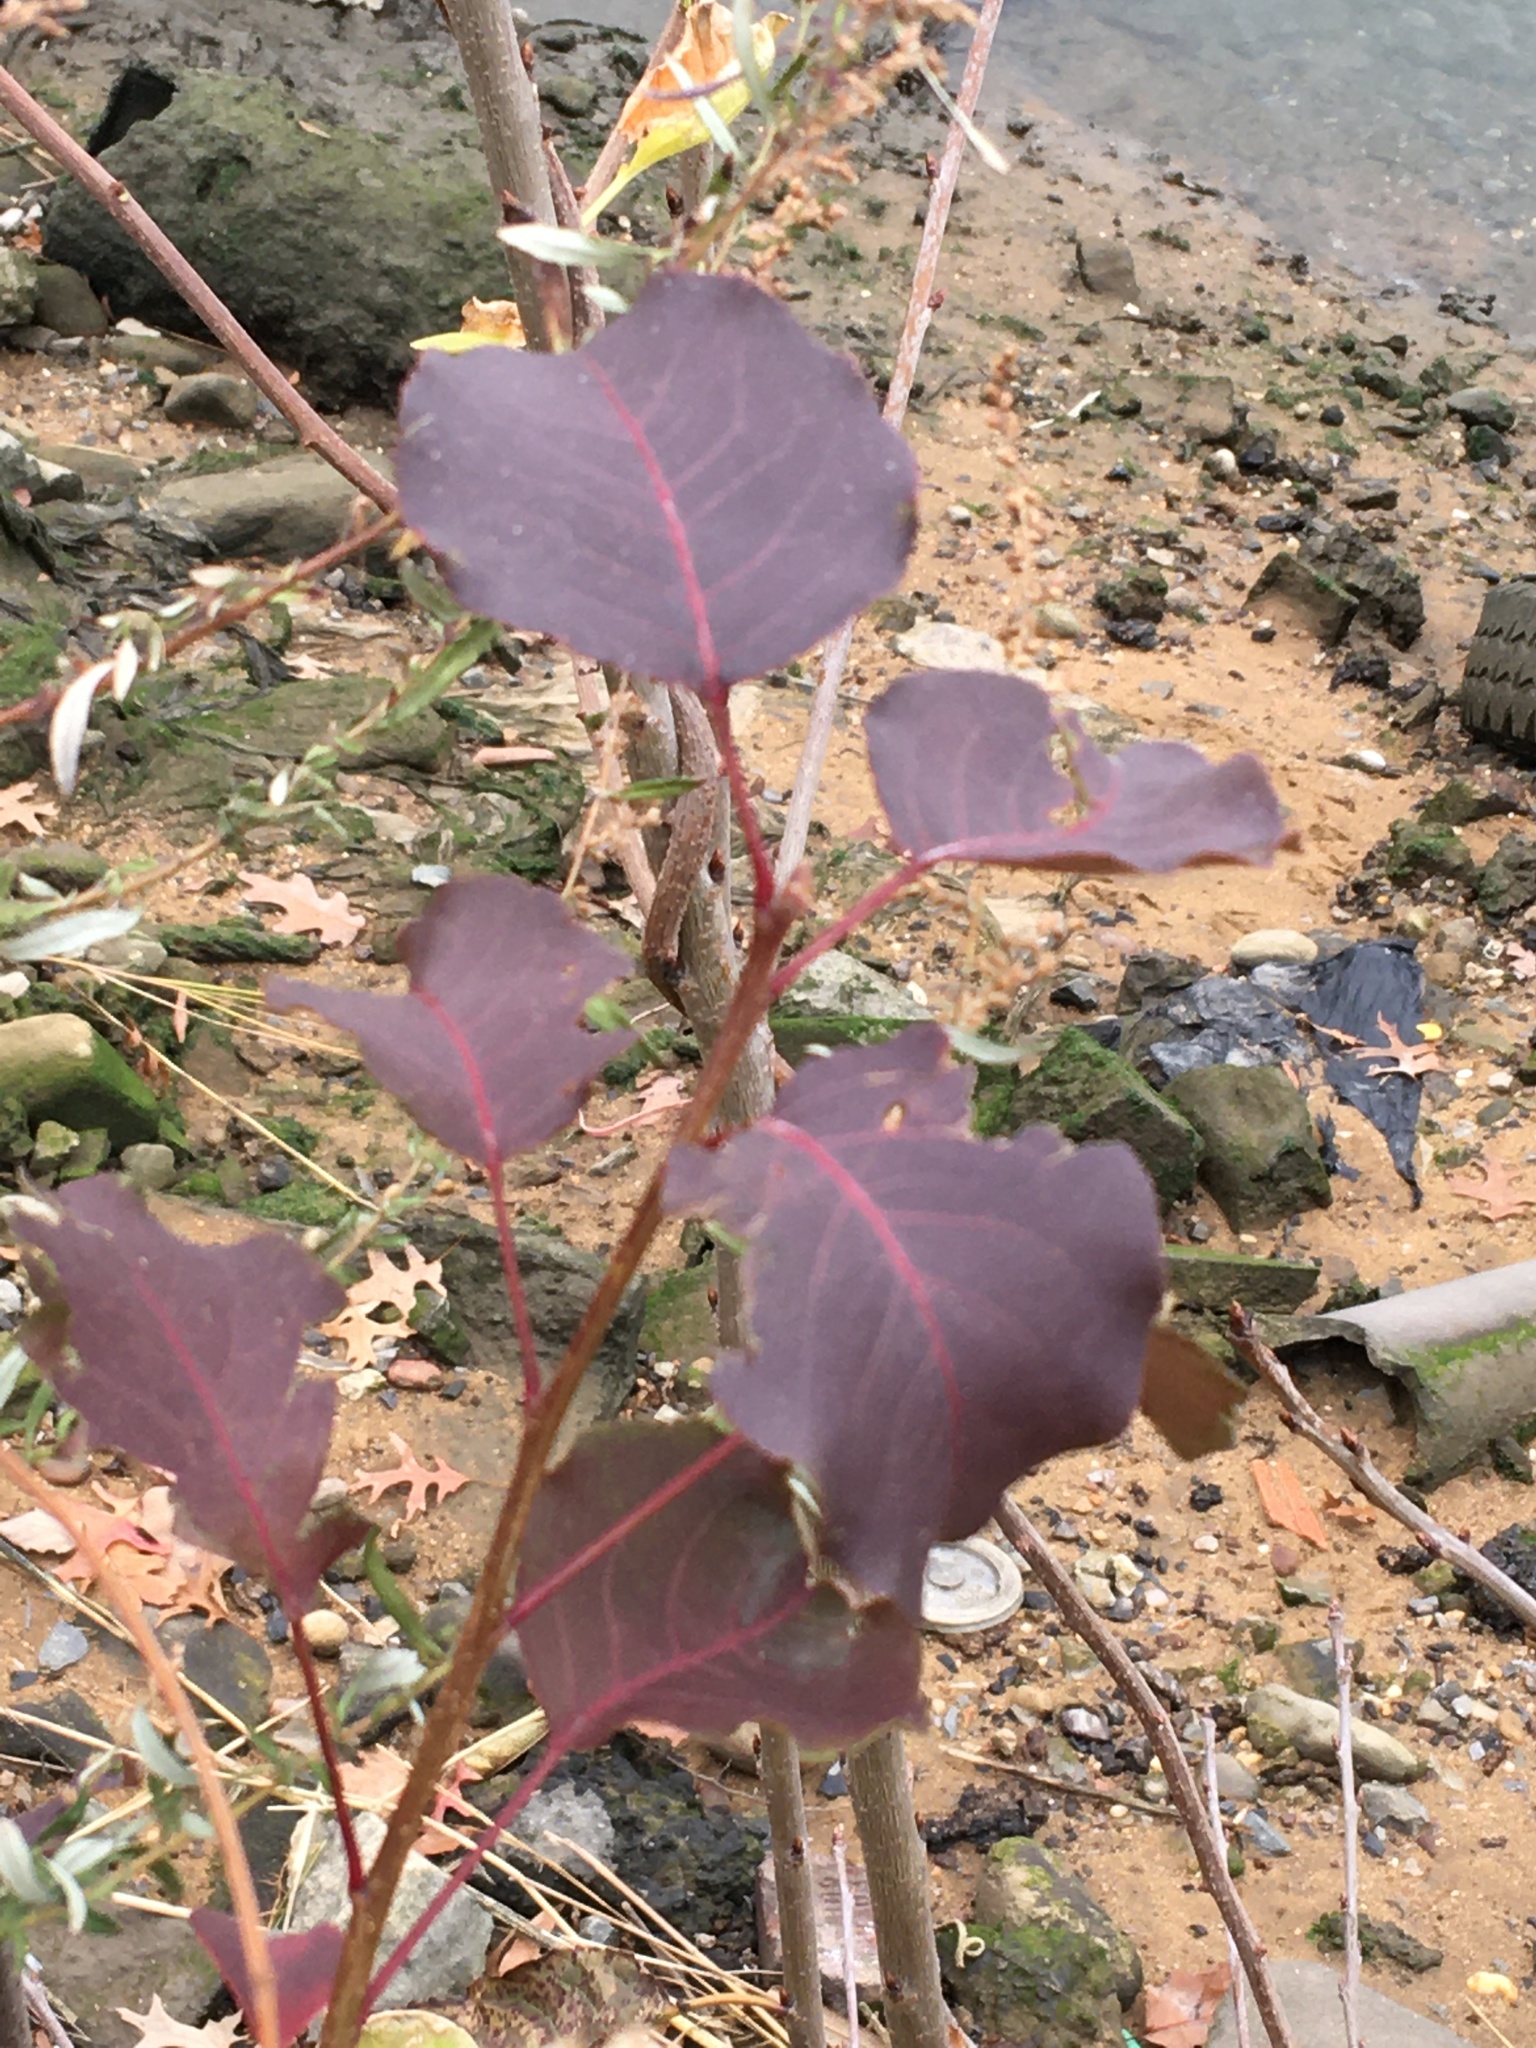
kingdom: Plantae
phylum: Tracheophyta
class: Magnoliopsida
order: Rosales
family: Rosaceae
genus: Pyrus
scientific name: Pyrus calleryana
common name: Callery pear
